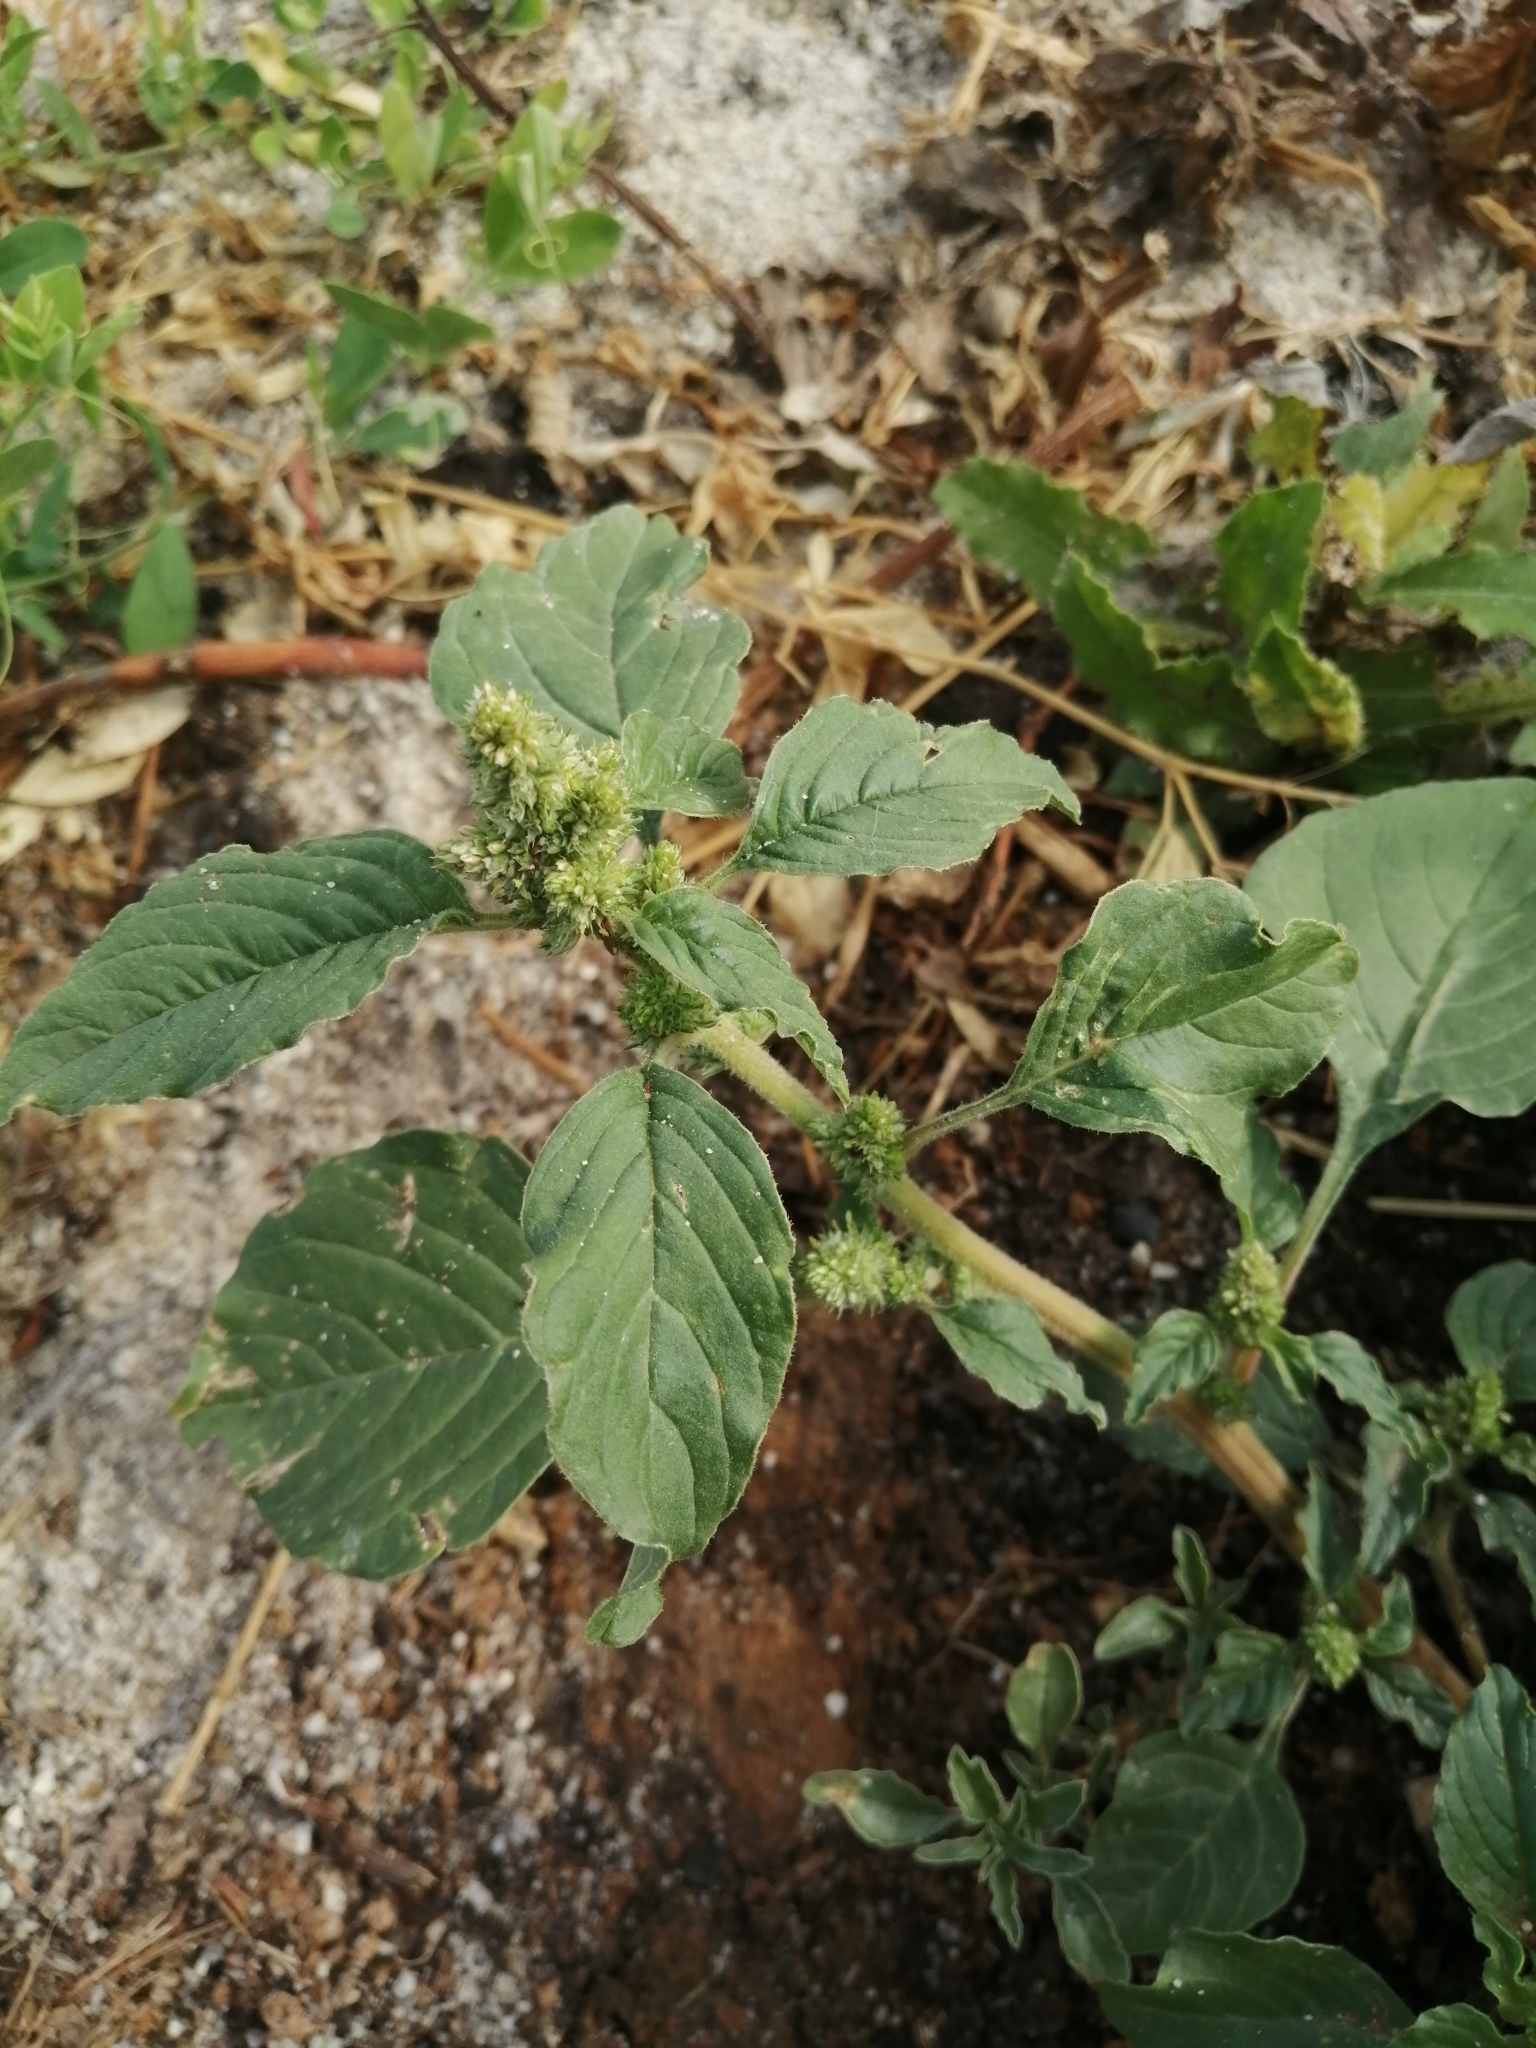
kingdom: Plantae
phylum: Tracheophyta
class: Magnoliopsida
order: Caryophyllales
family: Amaranthaceae
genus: Amaranthus
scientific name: Amaranthus retroflexus
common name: Redroot amaranth
